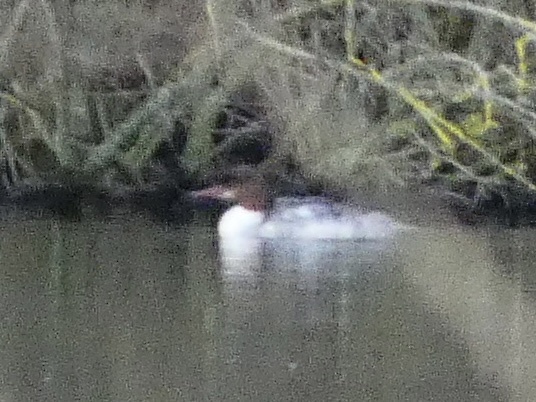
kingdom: Animalia
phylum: Chordata
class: Aves
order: Anseriformes
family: Anatidae
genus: Mergus
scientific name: Mergus merganser
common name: Common merganser
